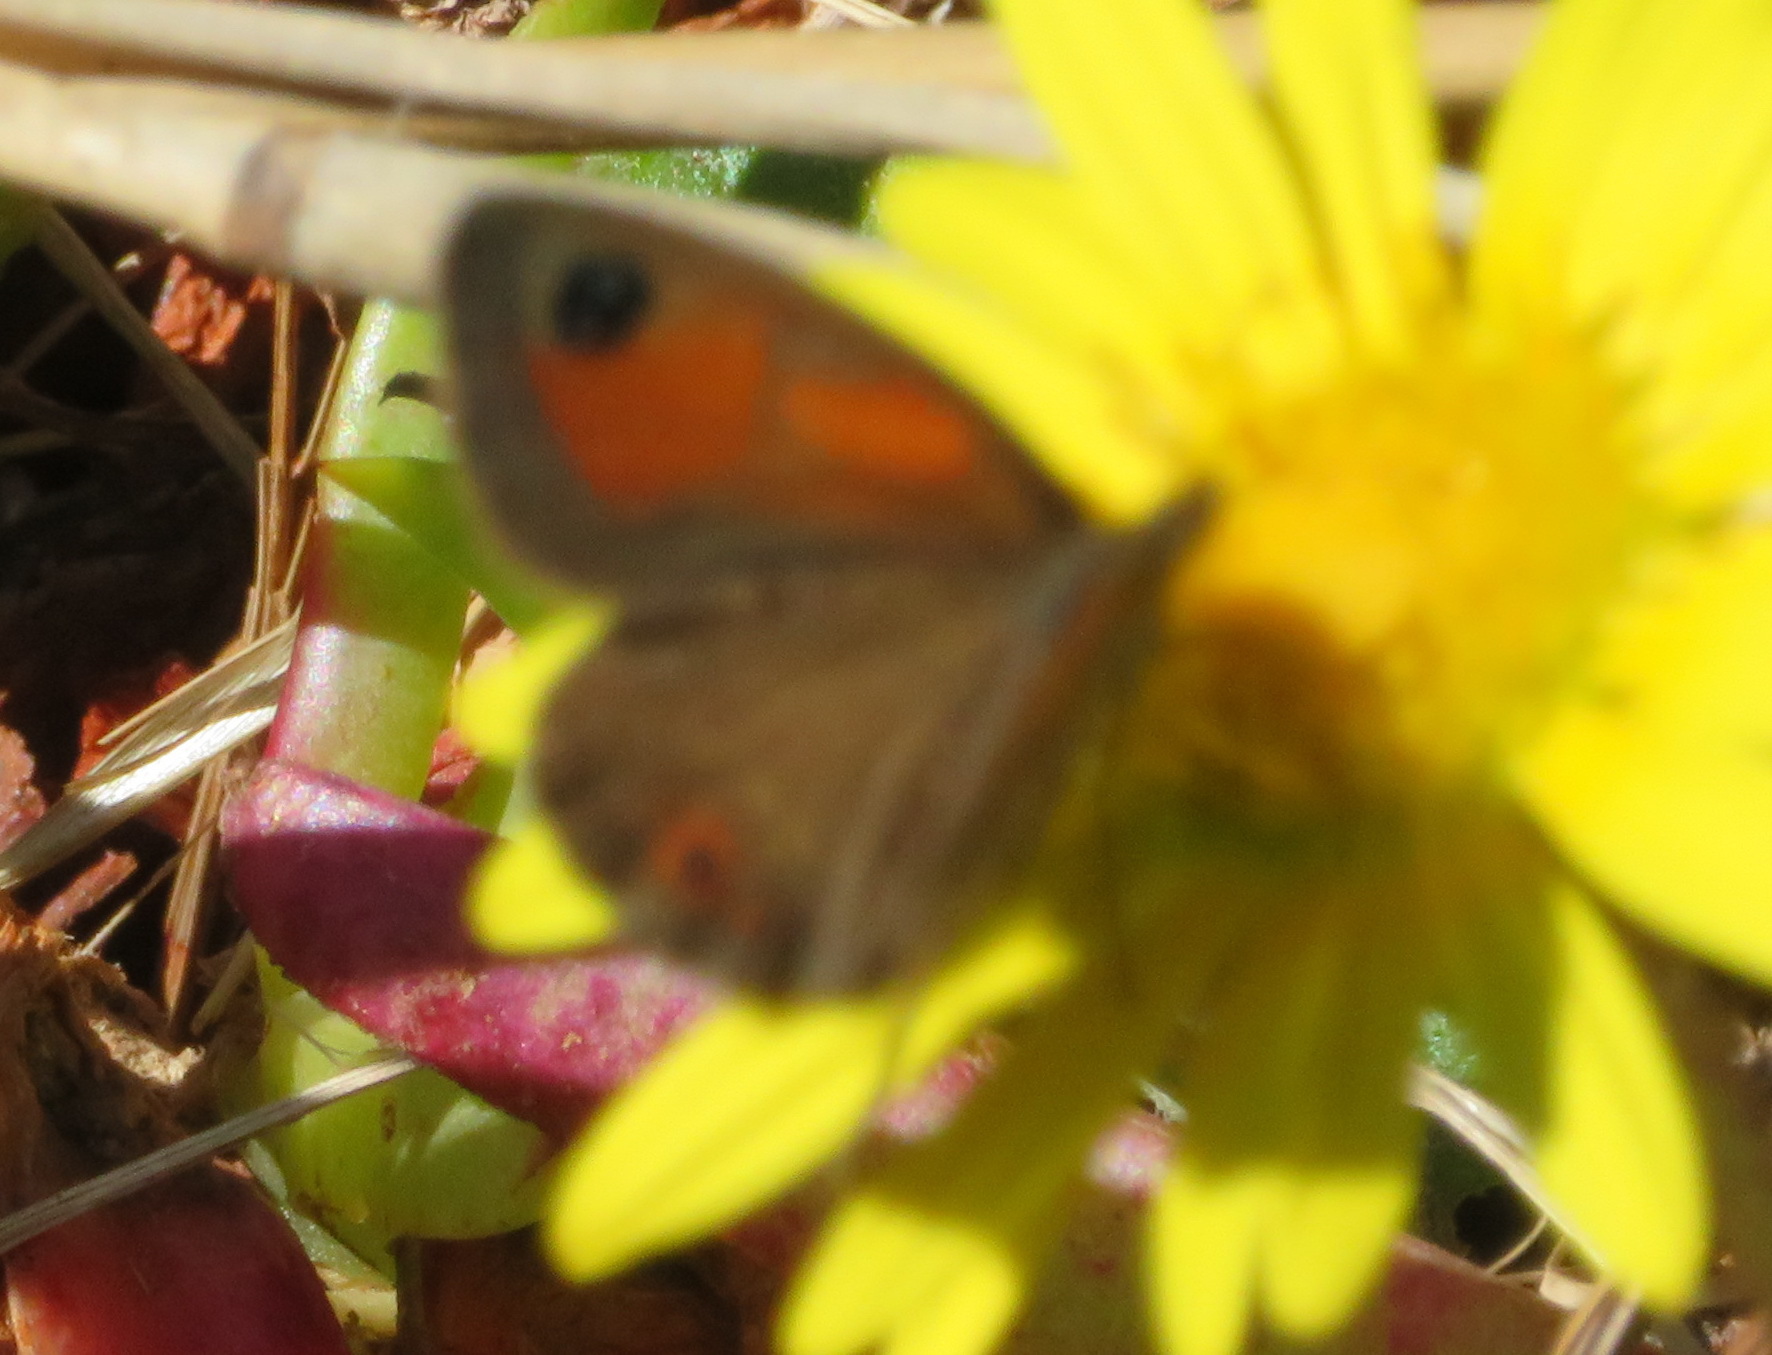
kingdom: Animalia
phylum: Arthropoda
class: Insecta
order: Lepidoptera
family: Nymphalidae
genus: Pseudonympha
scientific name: Pseudonympha magus
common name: Silver-bottom brown
